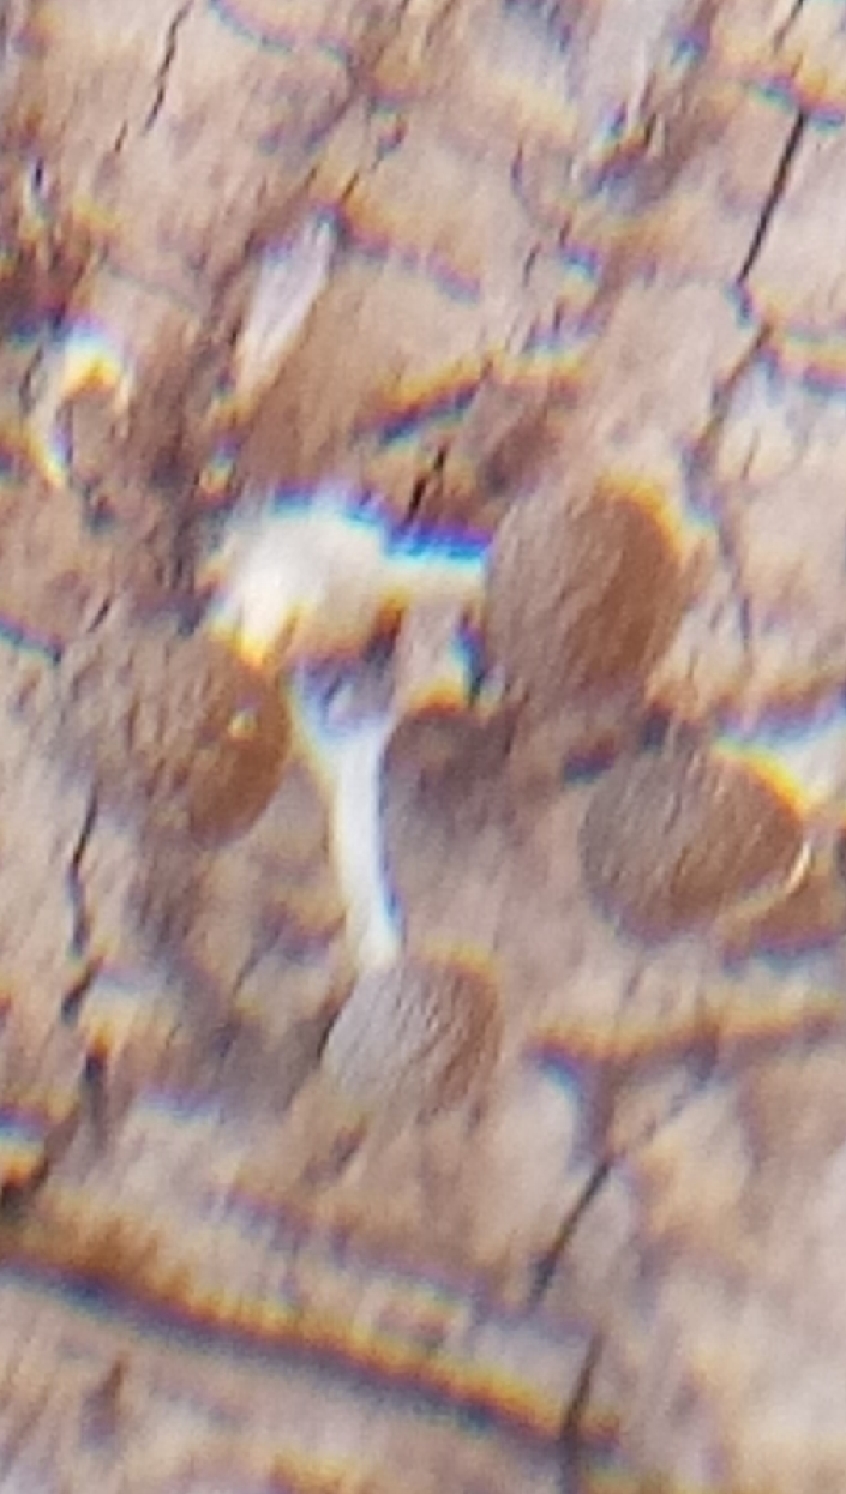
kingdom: Fungi
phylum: Basidiomycota
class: Atractiellomycetes
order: Atractiellales
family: Phleogenaceae
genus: Phleogena
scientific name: Phleogena faginea
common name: Fenugreek stalkball
